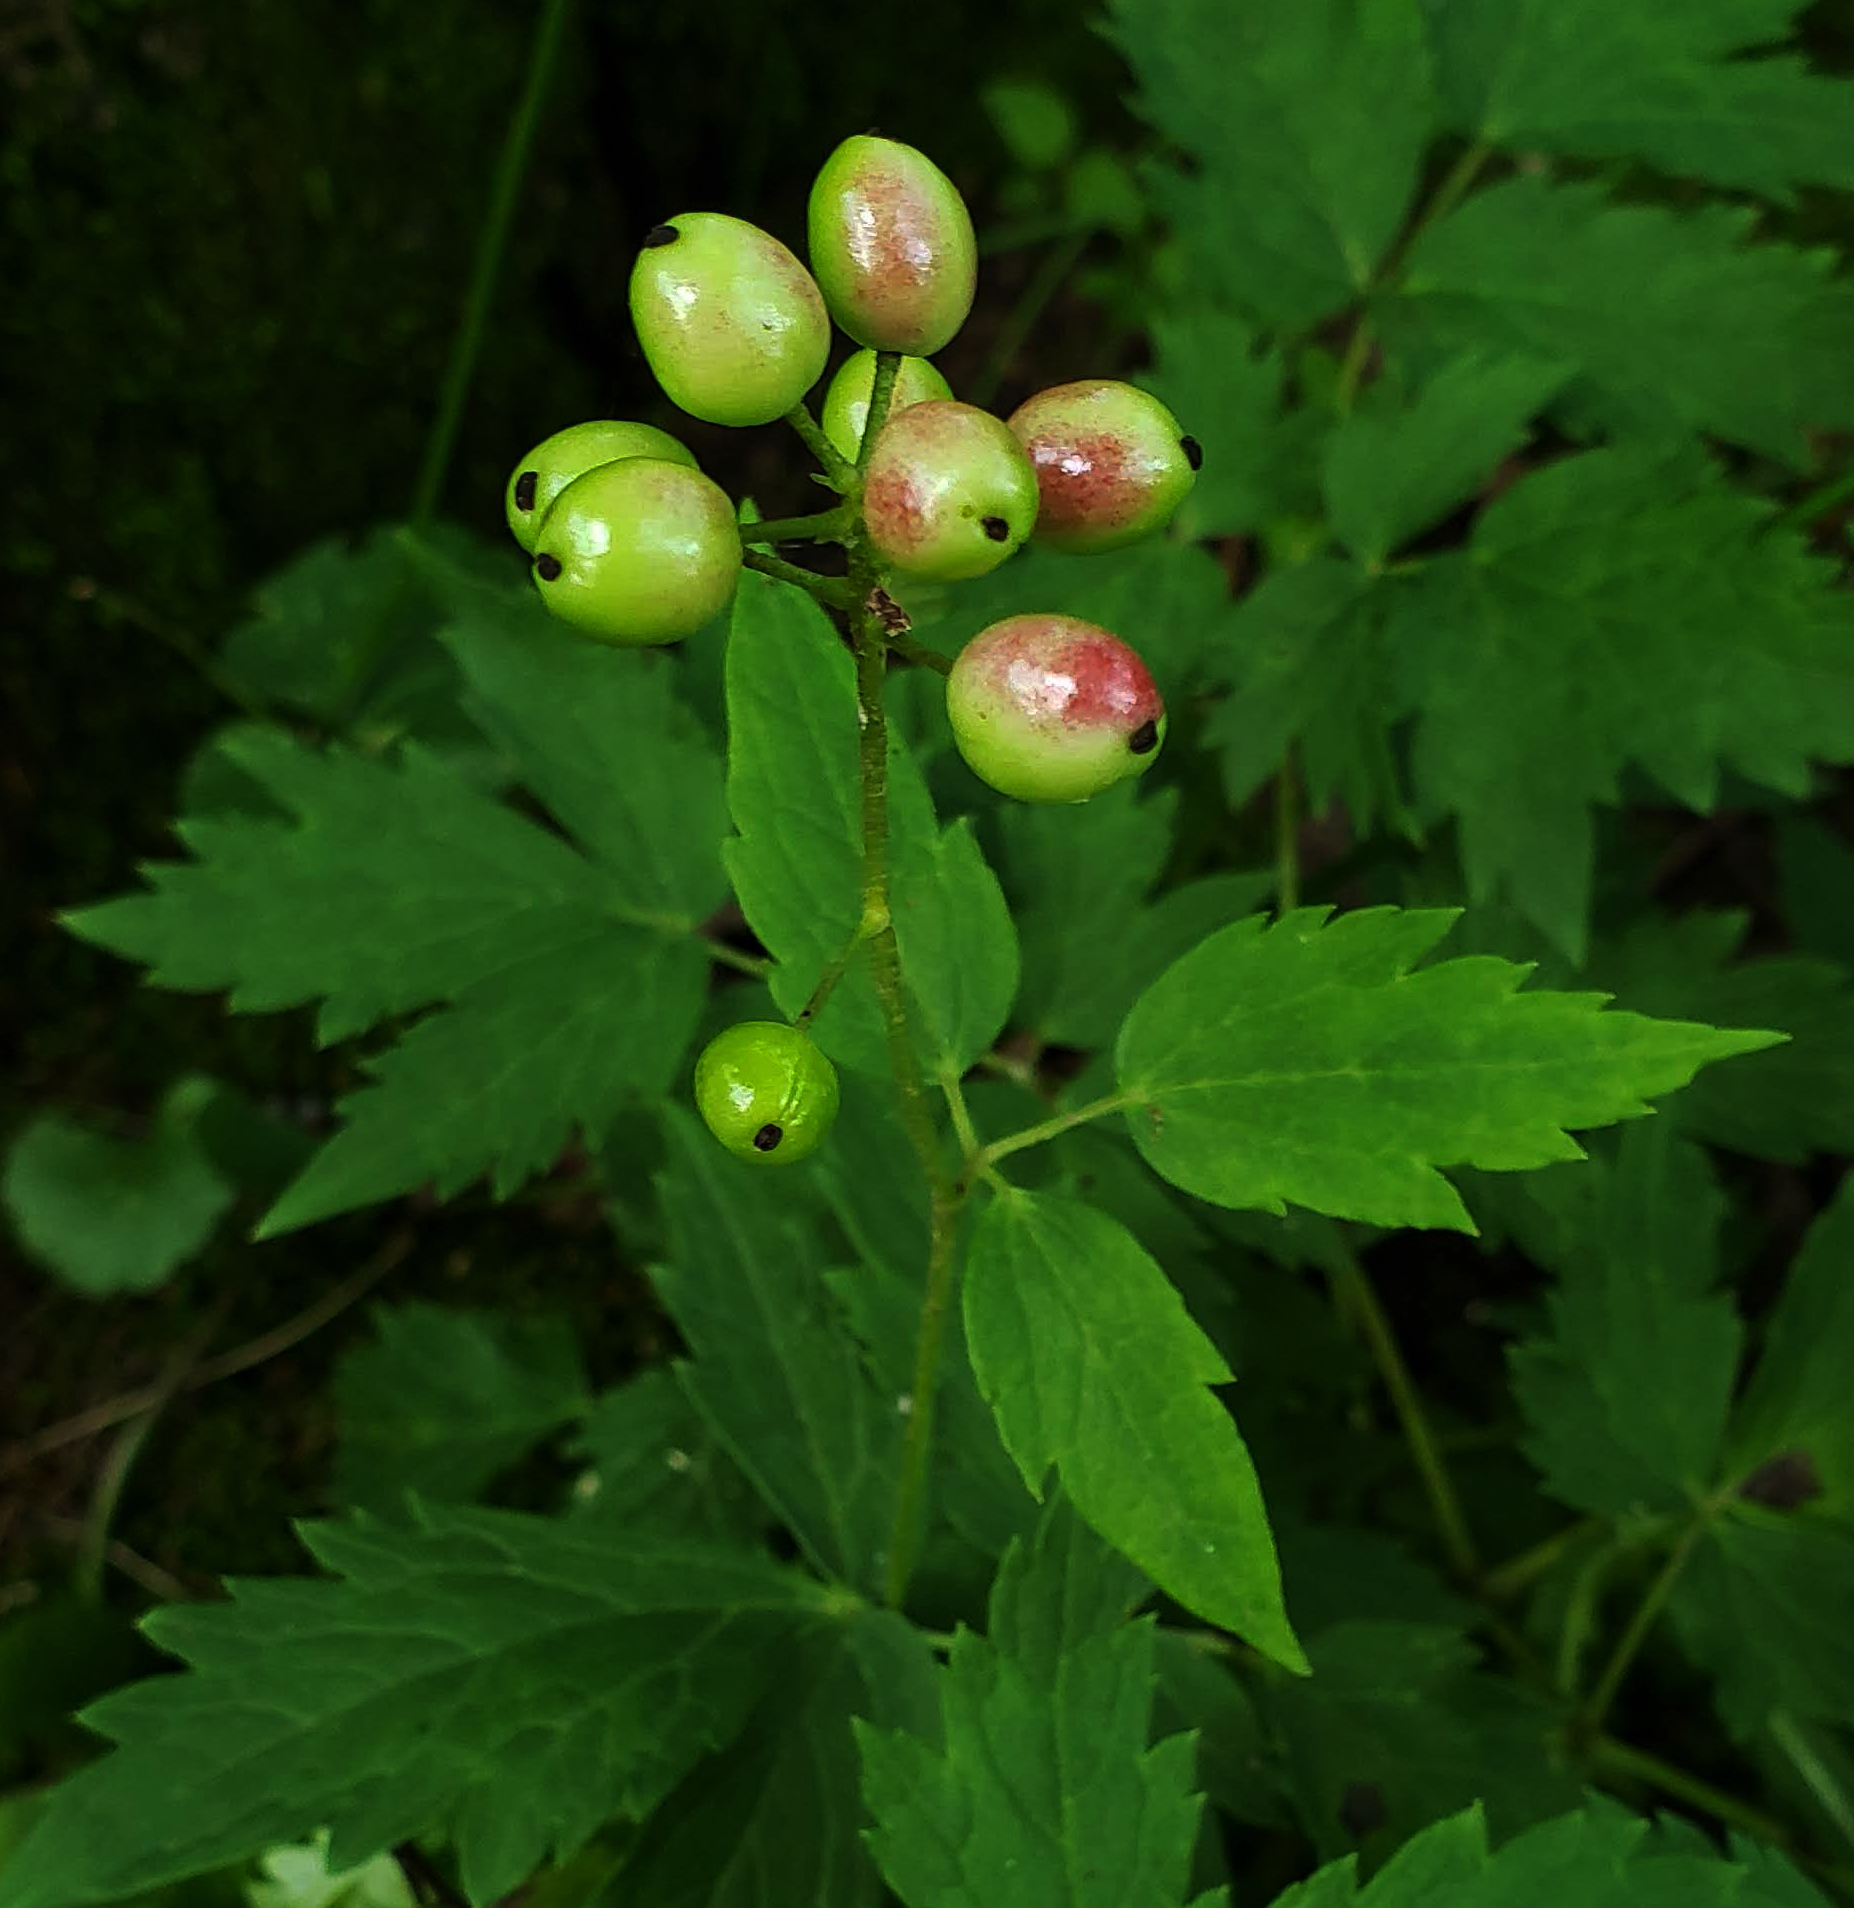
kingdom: Plantae
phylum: Tracheophyta
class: Magnoliopsida
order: Ranunculales
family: Ranunculaceae
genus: Actaea
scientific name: Actaea rubra
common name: Red baneberry
